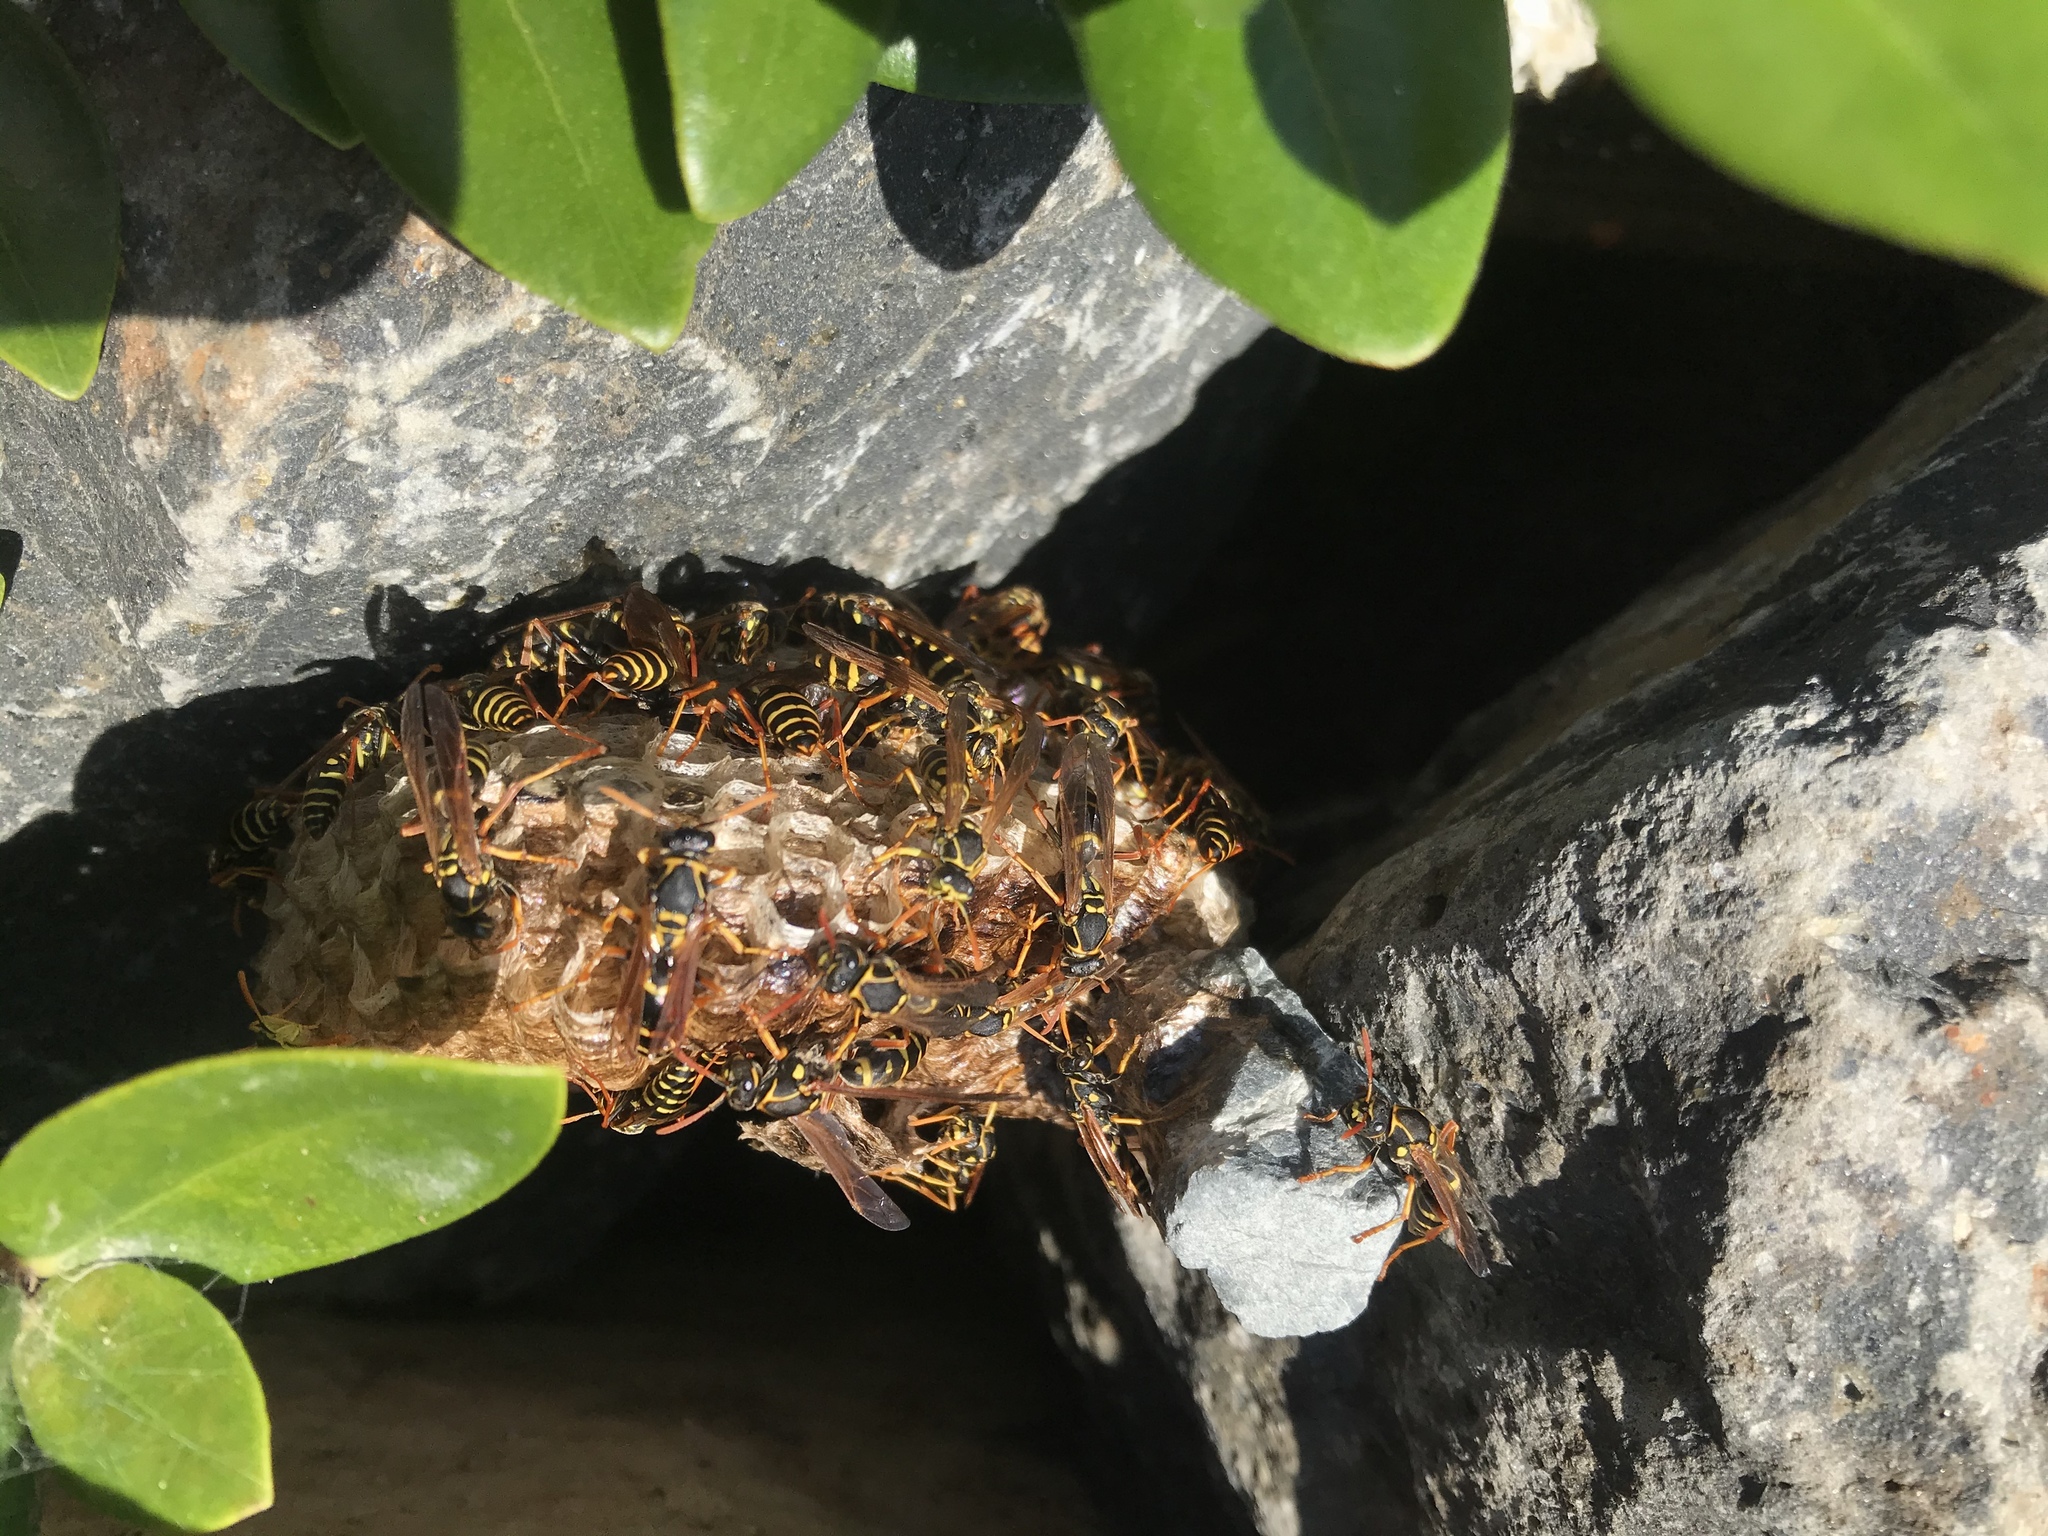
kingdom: Animalia
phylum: Arthropoda
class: Insecta
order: Hymenoptera
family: Eumenidae
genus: Polistes
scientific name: Polistes chinensis
